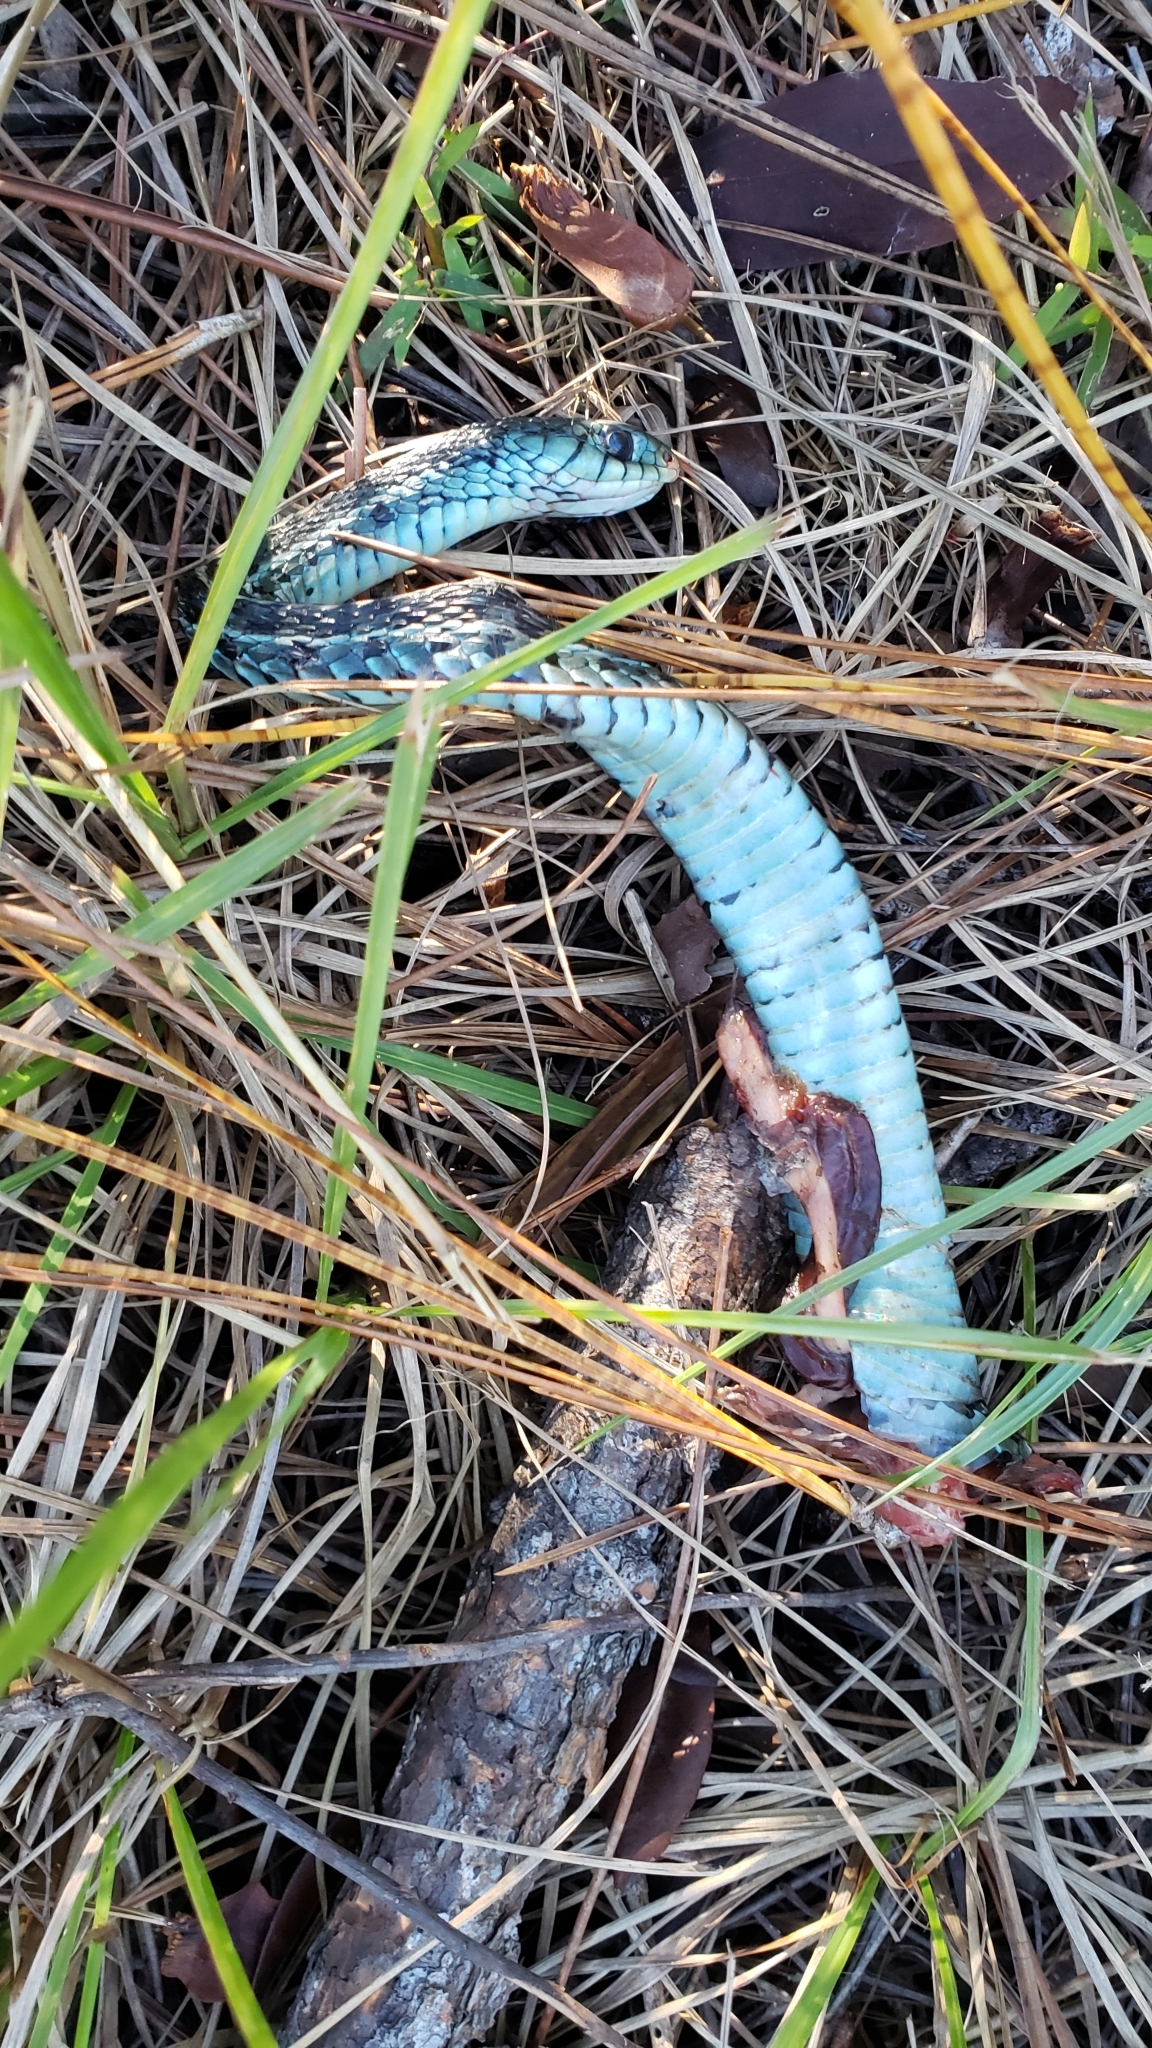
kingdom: Animalia
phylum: Chordata
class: Squamata
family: Colubridae
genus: Thamnophis
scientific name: Thamnophis sirtalis
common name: Common garter snake
